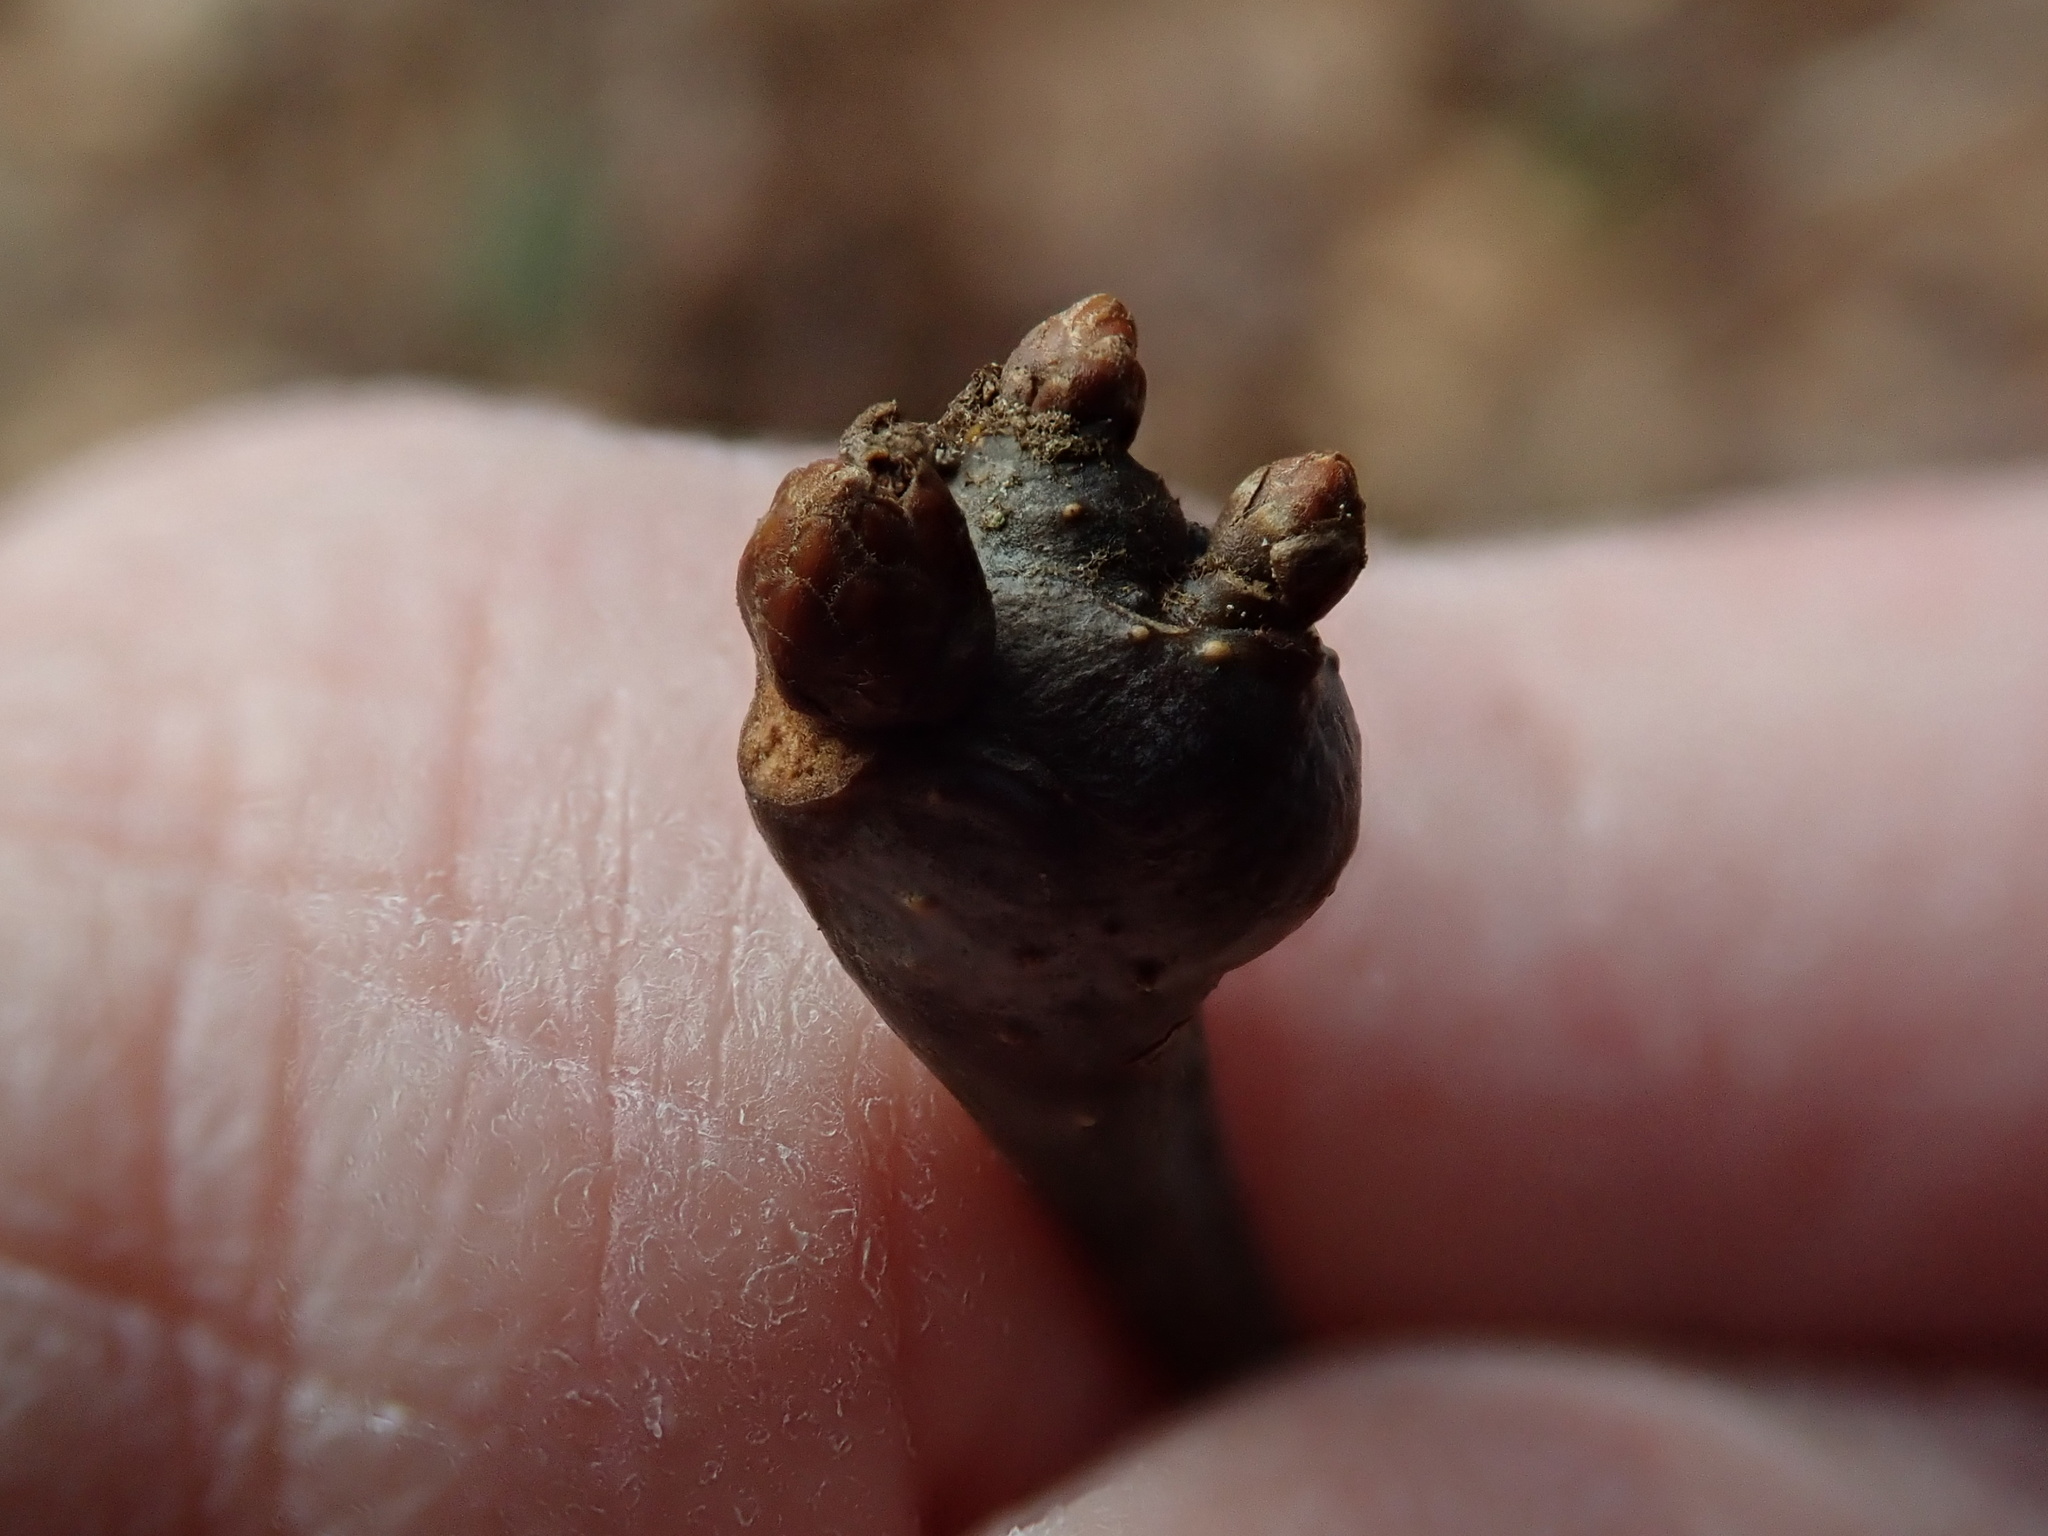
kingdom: Animalia
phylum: Arthropoda
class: Insecta
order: Hymenoptera
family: Cynipidae
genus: Callirhytis
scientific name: Callirhytis clavula
